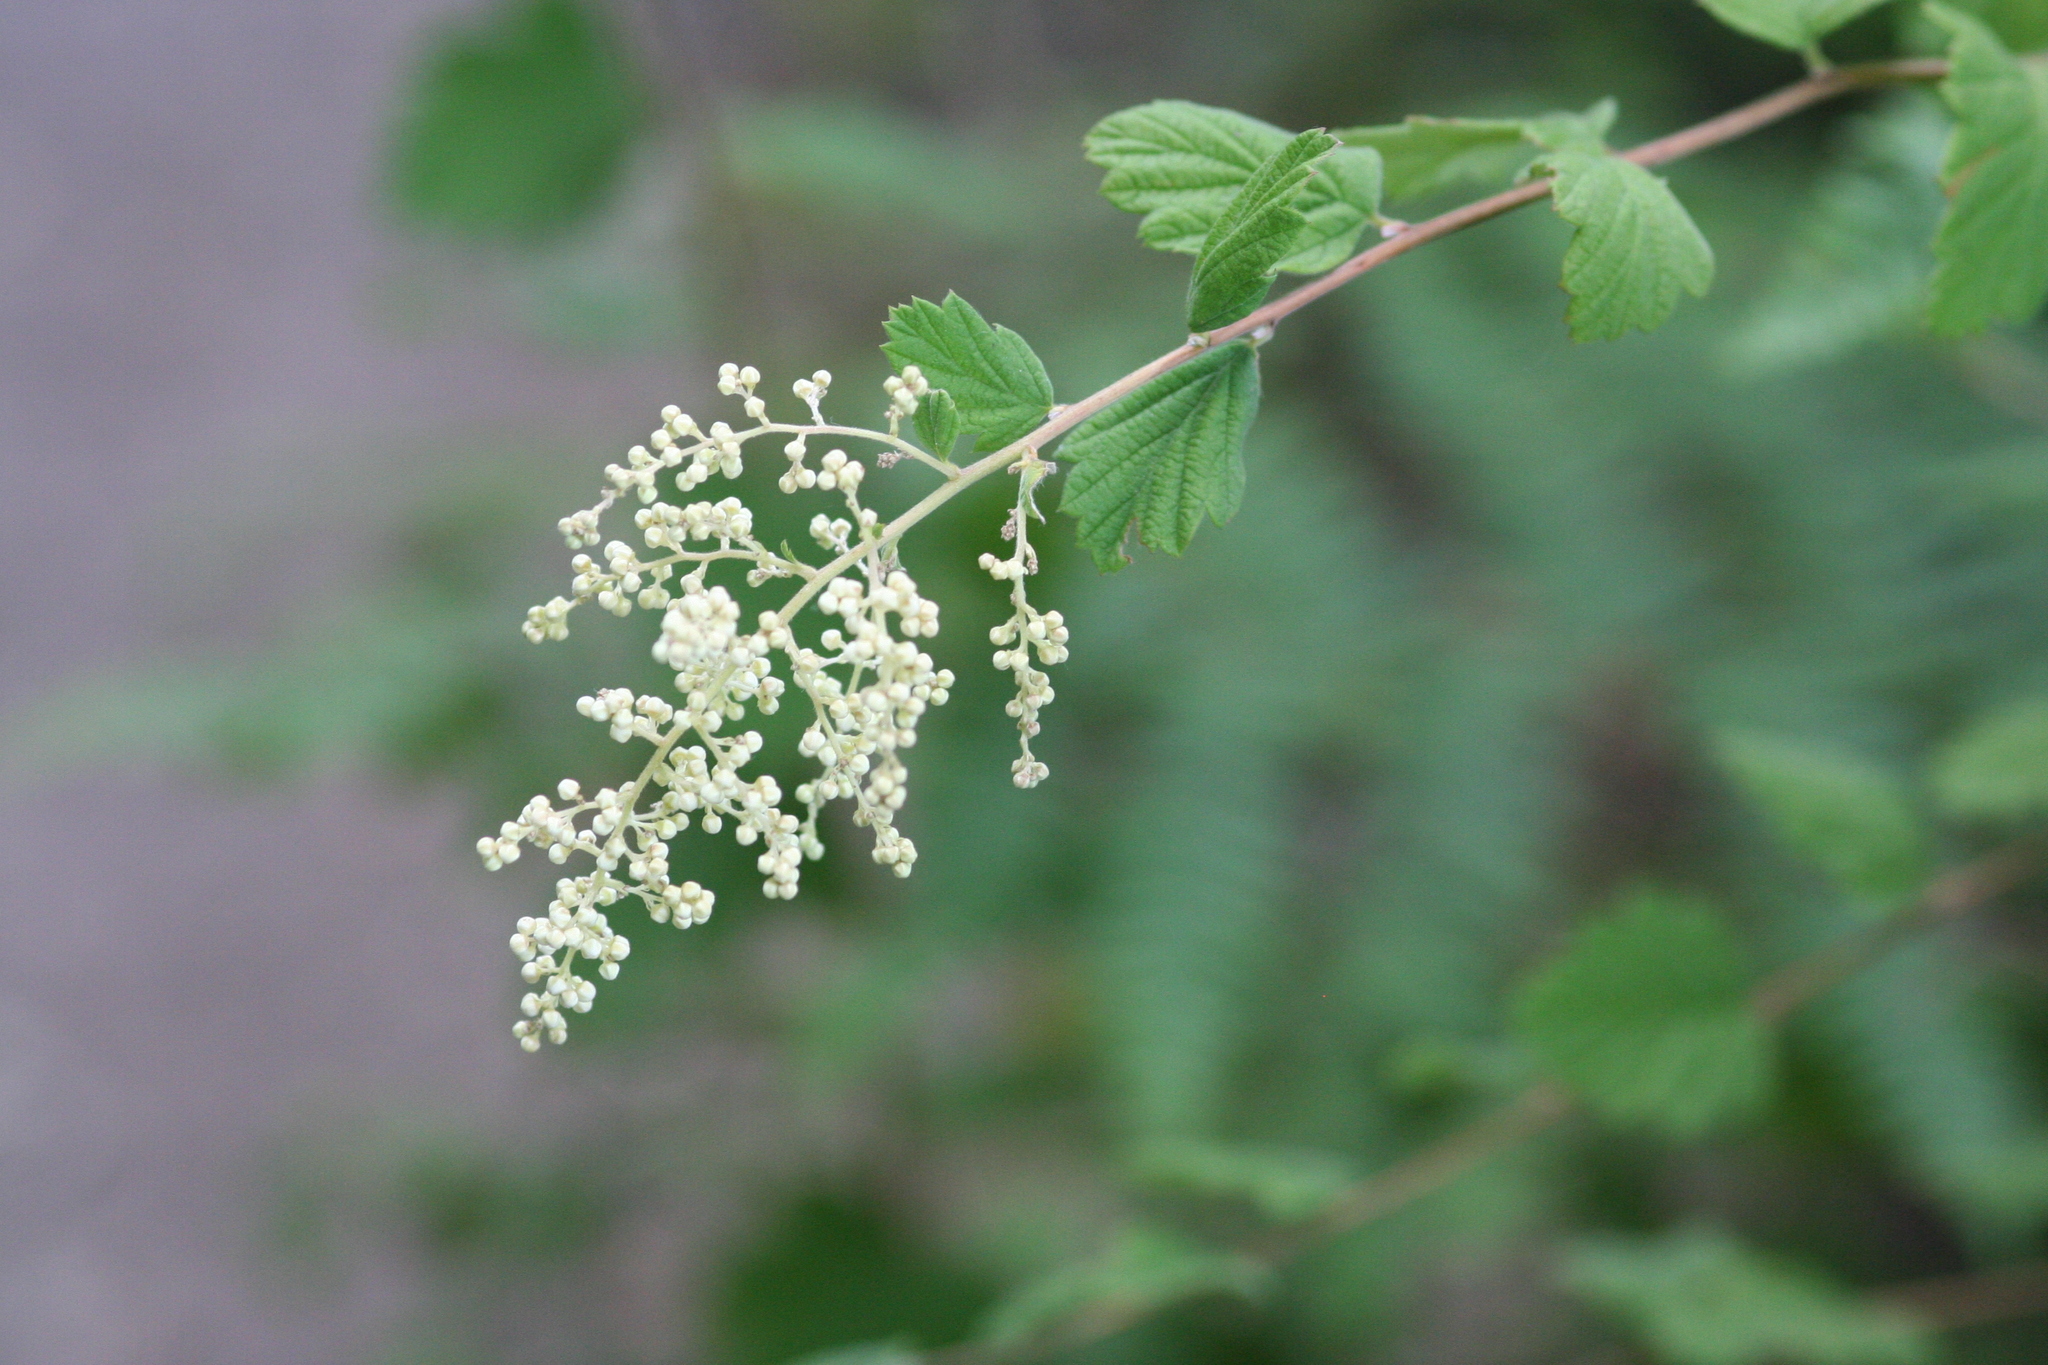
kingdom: Plantae
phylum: Tracheophyta
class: Magnoliopsida
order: Rosales
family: Rosaceae
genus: Holodiscus
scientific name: Holodiscus discolor
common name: Oceanspray
